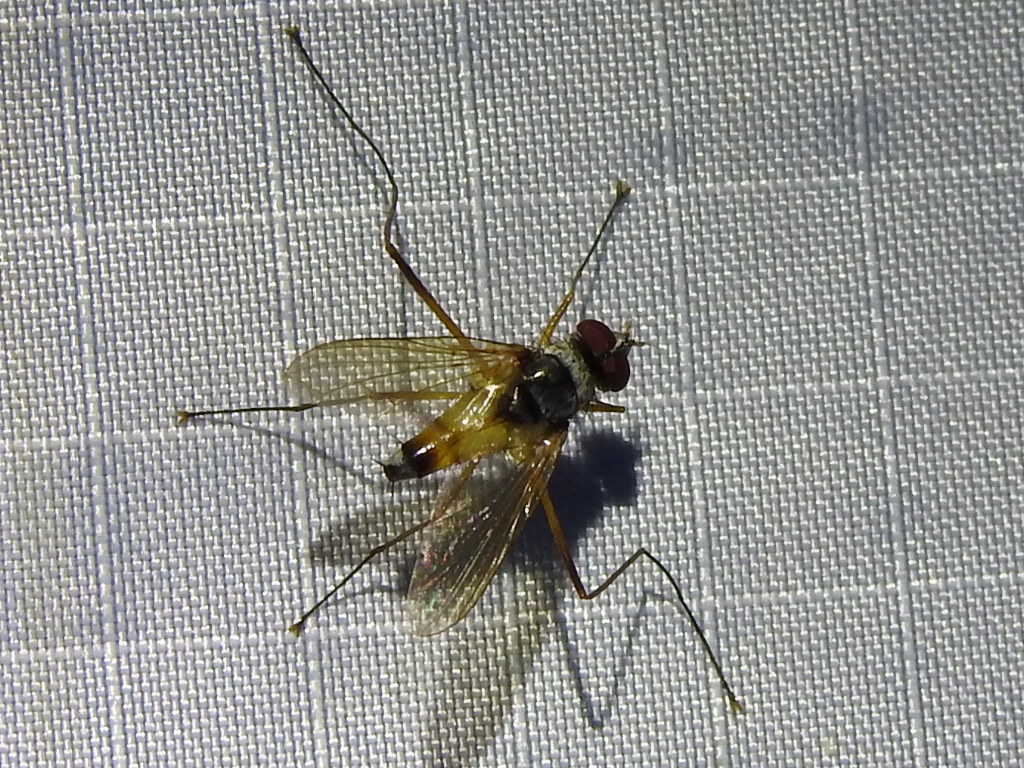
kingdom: Animalia
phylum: Arthropoda
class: Insecta
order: Diptera
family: Tachinidae
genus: Cholomyia
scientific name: Cholomyia inaequipes
